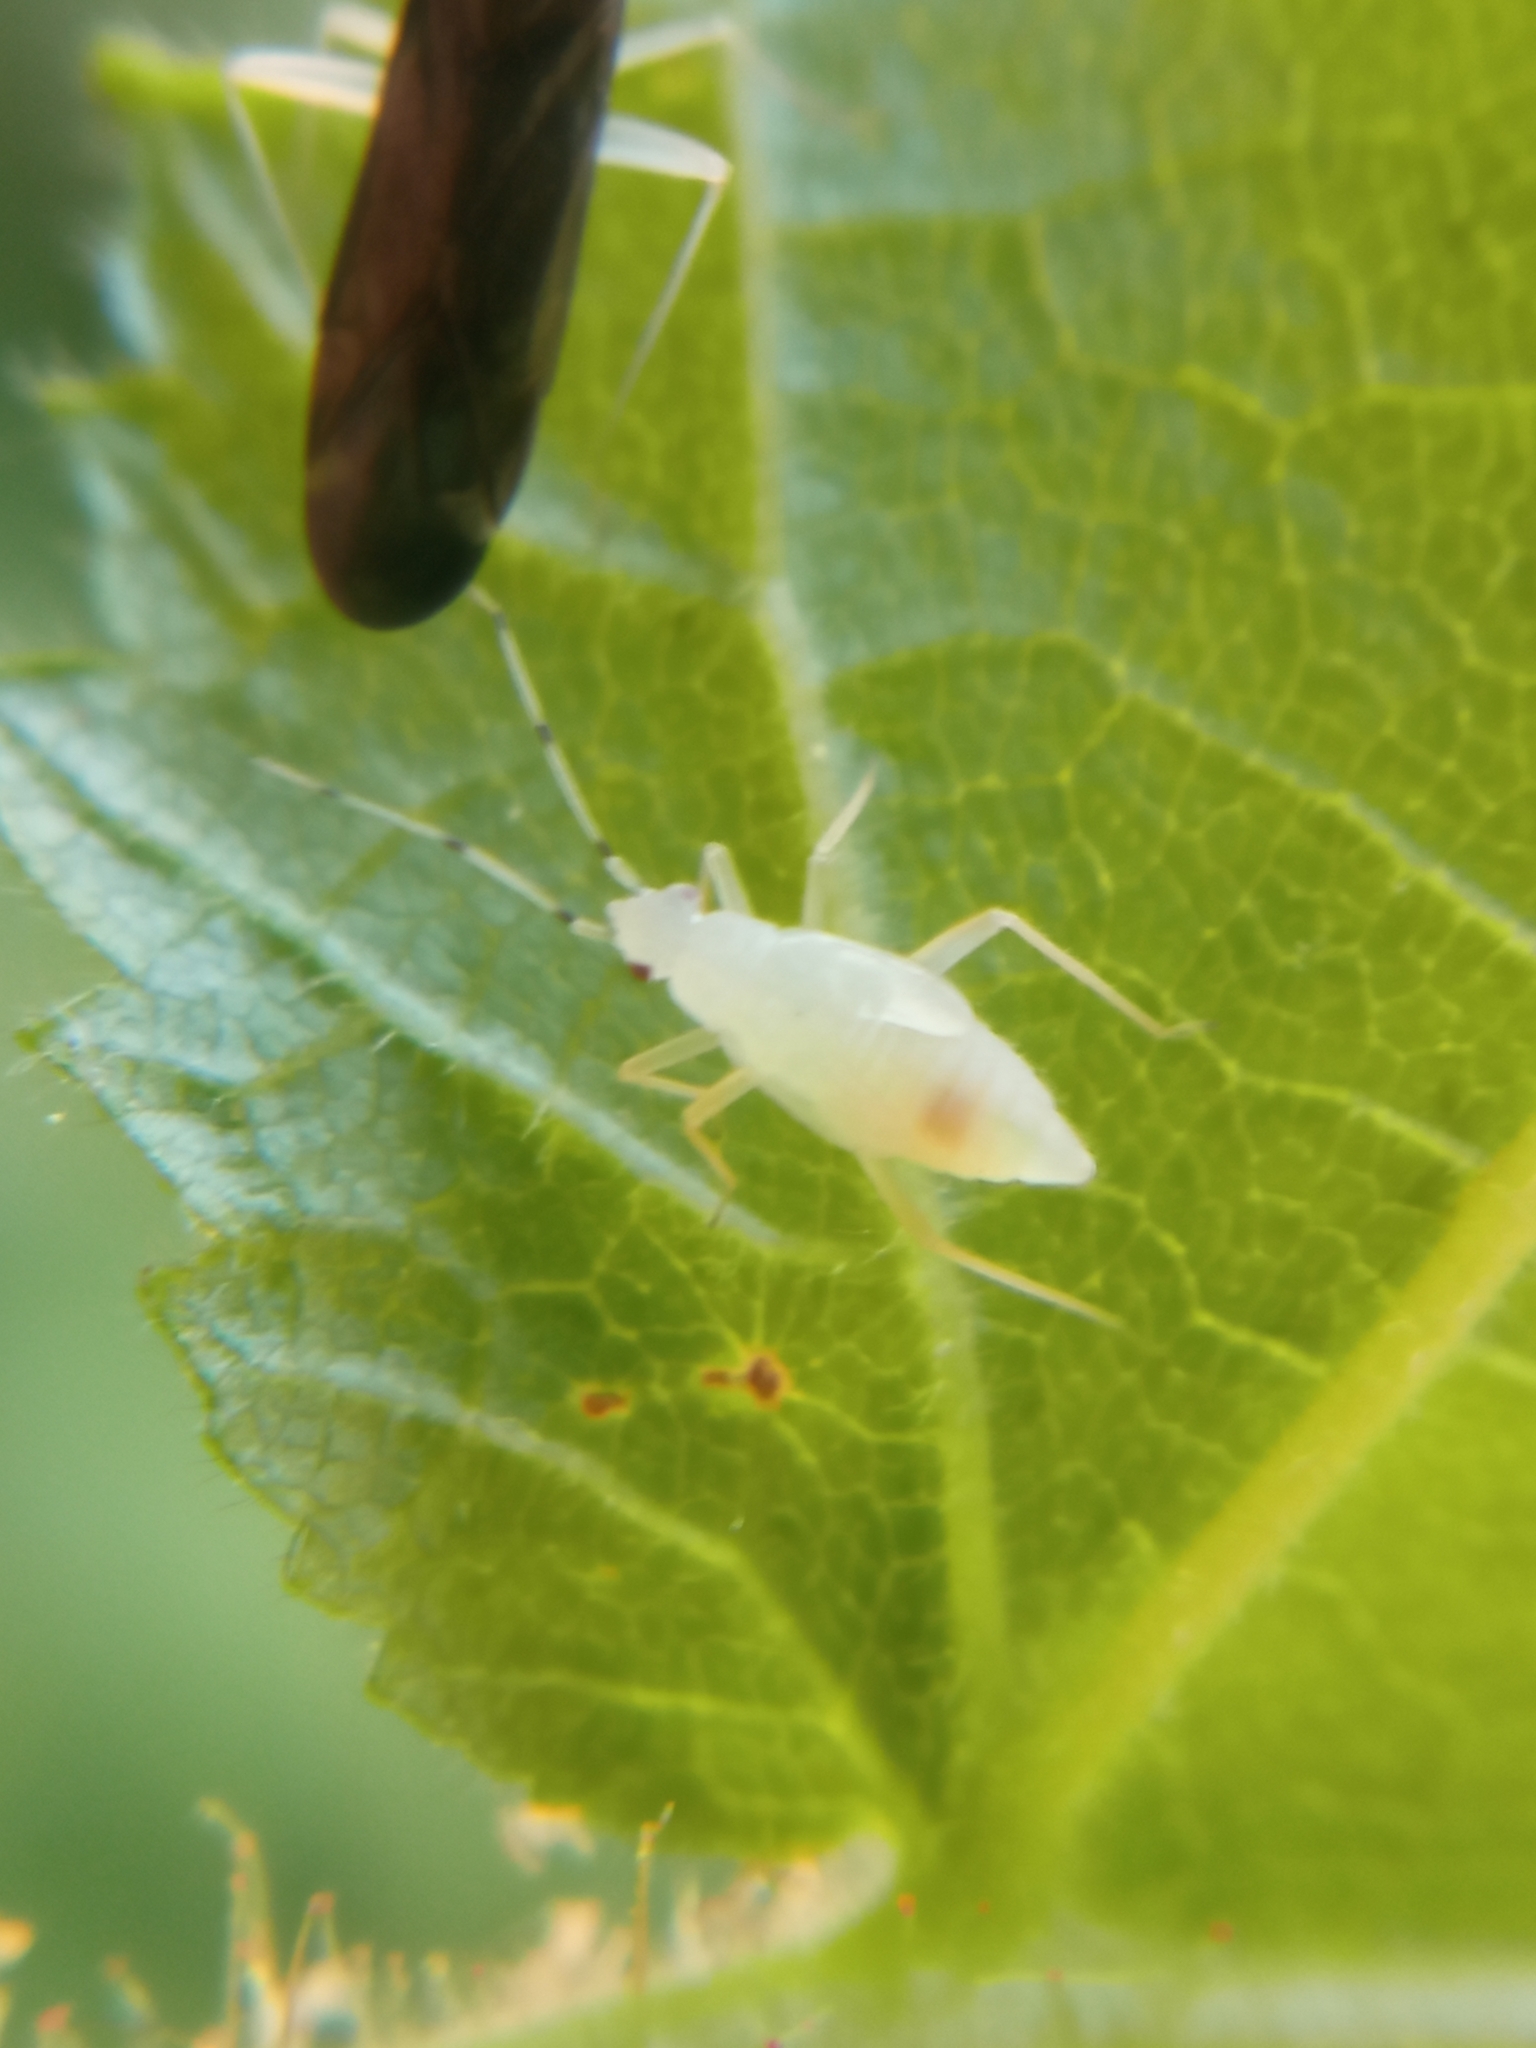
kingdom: Animalia
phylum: Arthropoda
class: Insecta
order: Hemiptera
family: Miridae
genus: Phylus
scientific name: Phylus coryli
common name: Plant bug
